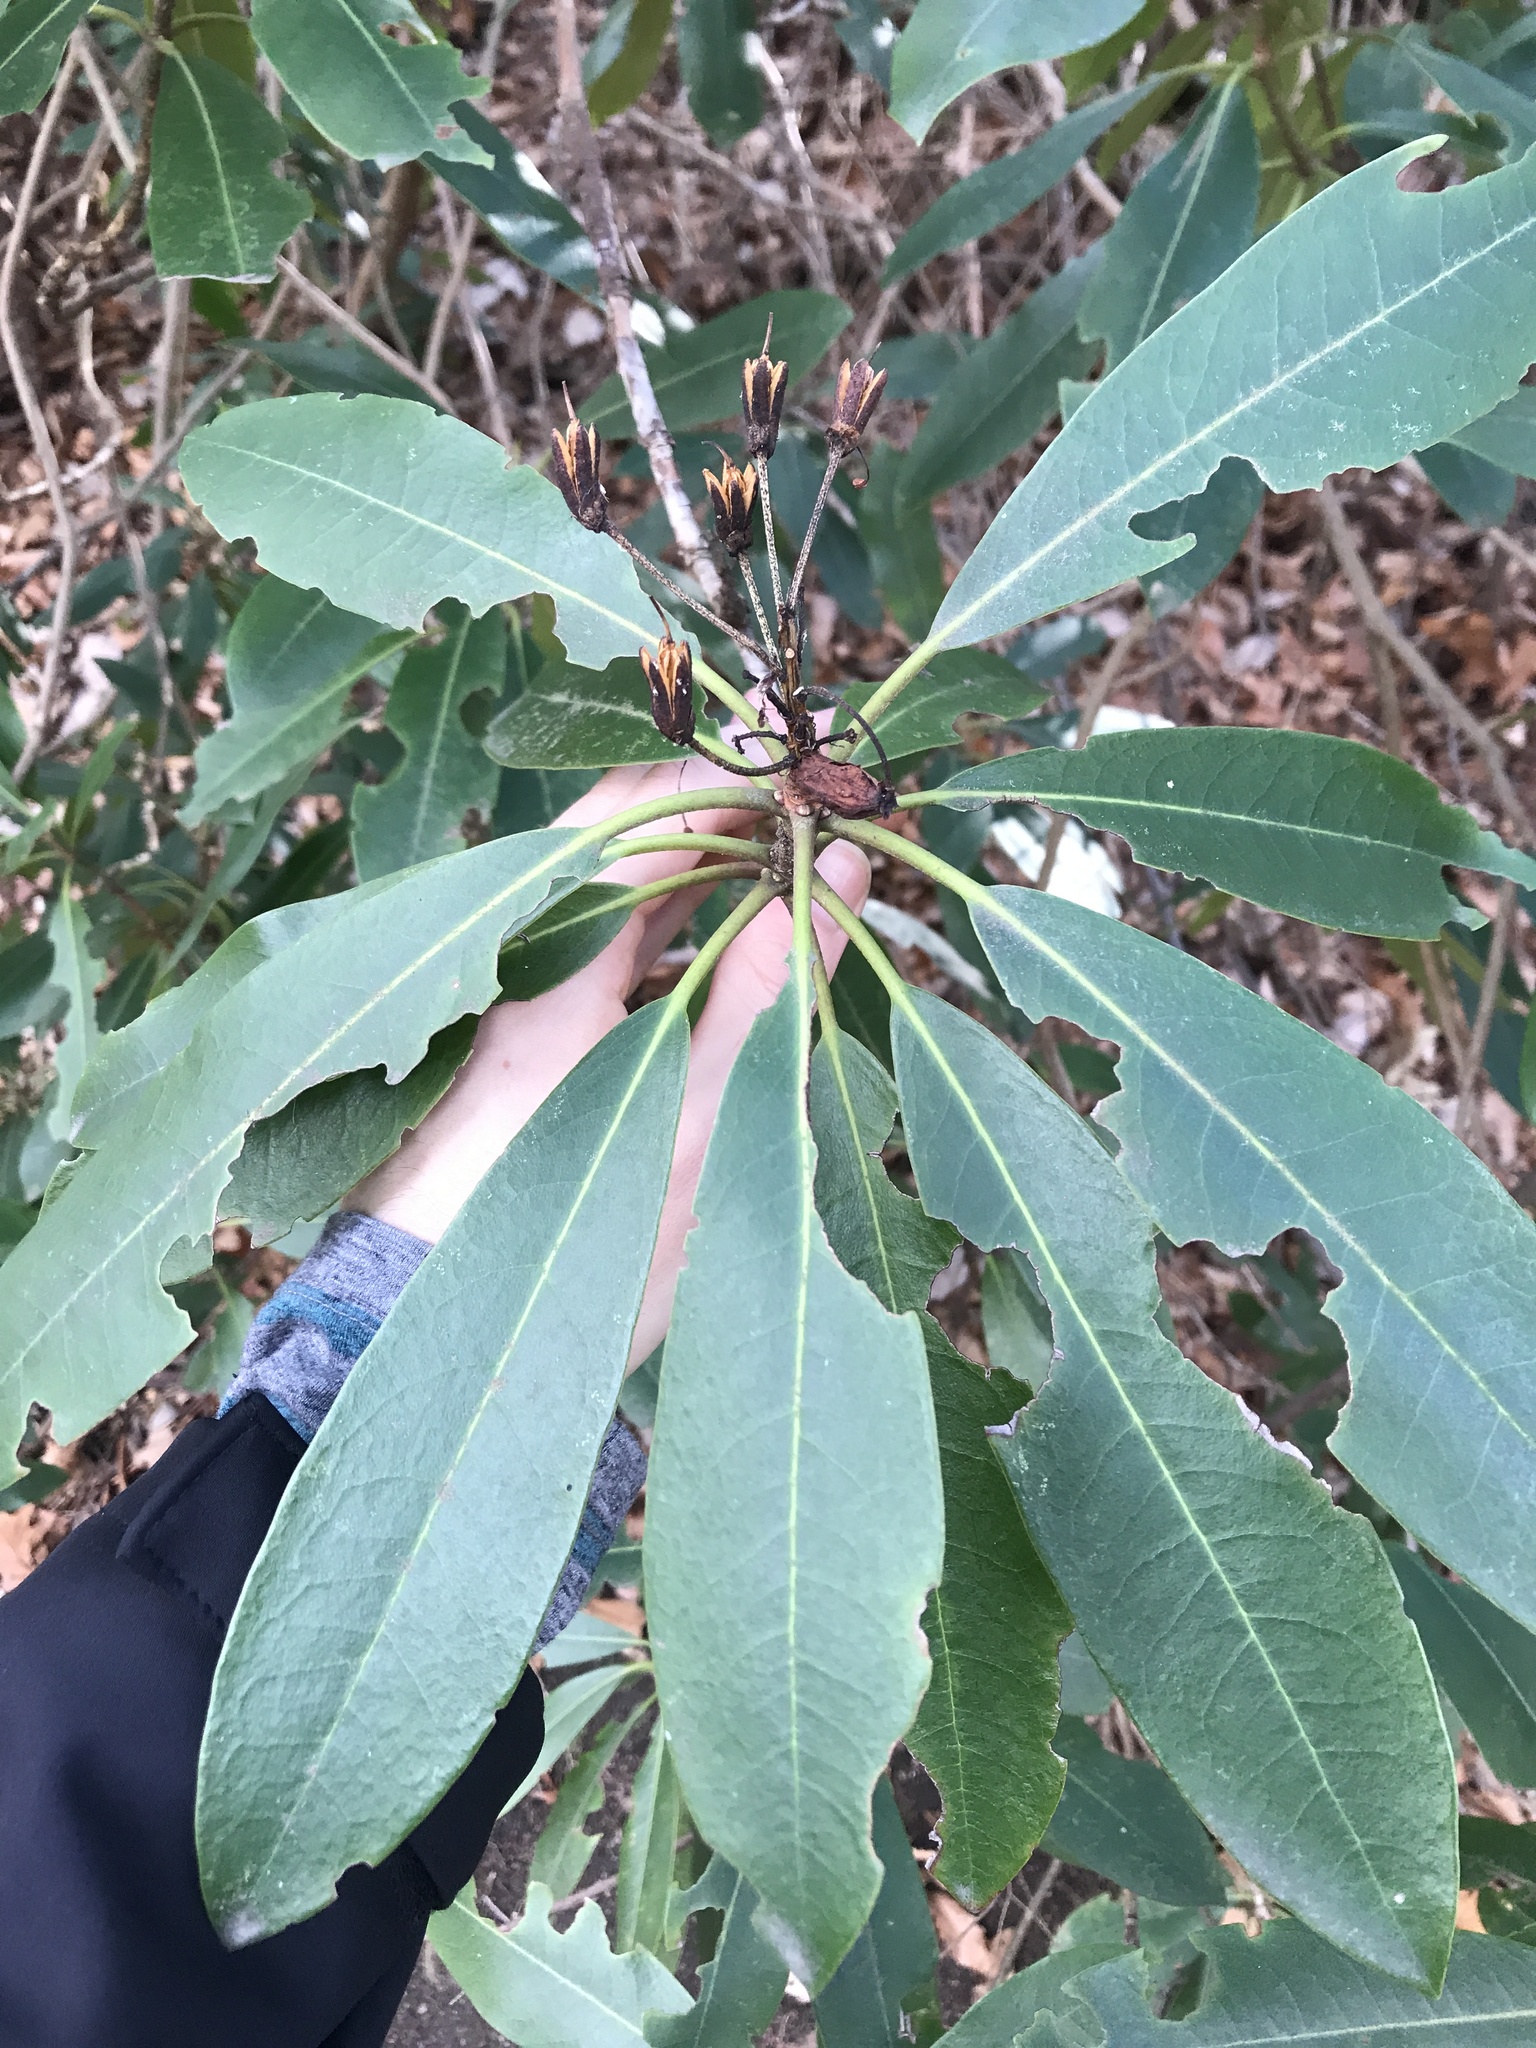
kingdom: Plantae
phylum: Tracheophyta
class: Magnoliopsida
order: Ericales
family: Ericaceae
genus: Rhododendron
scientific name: Rhododendron maximum
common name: Great rhododendron
